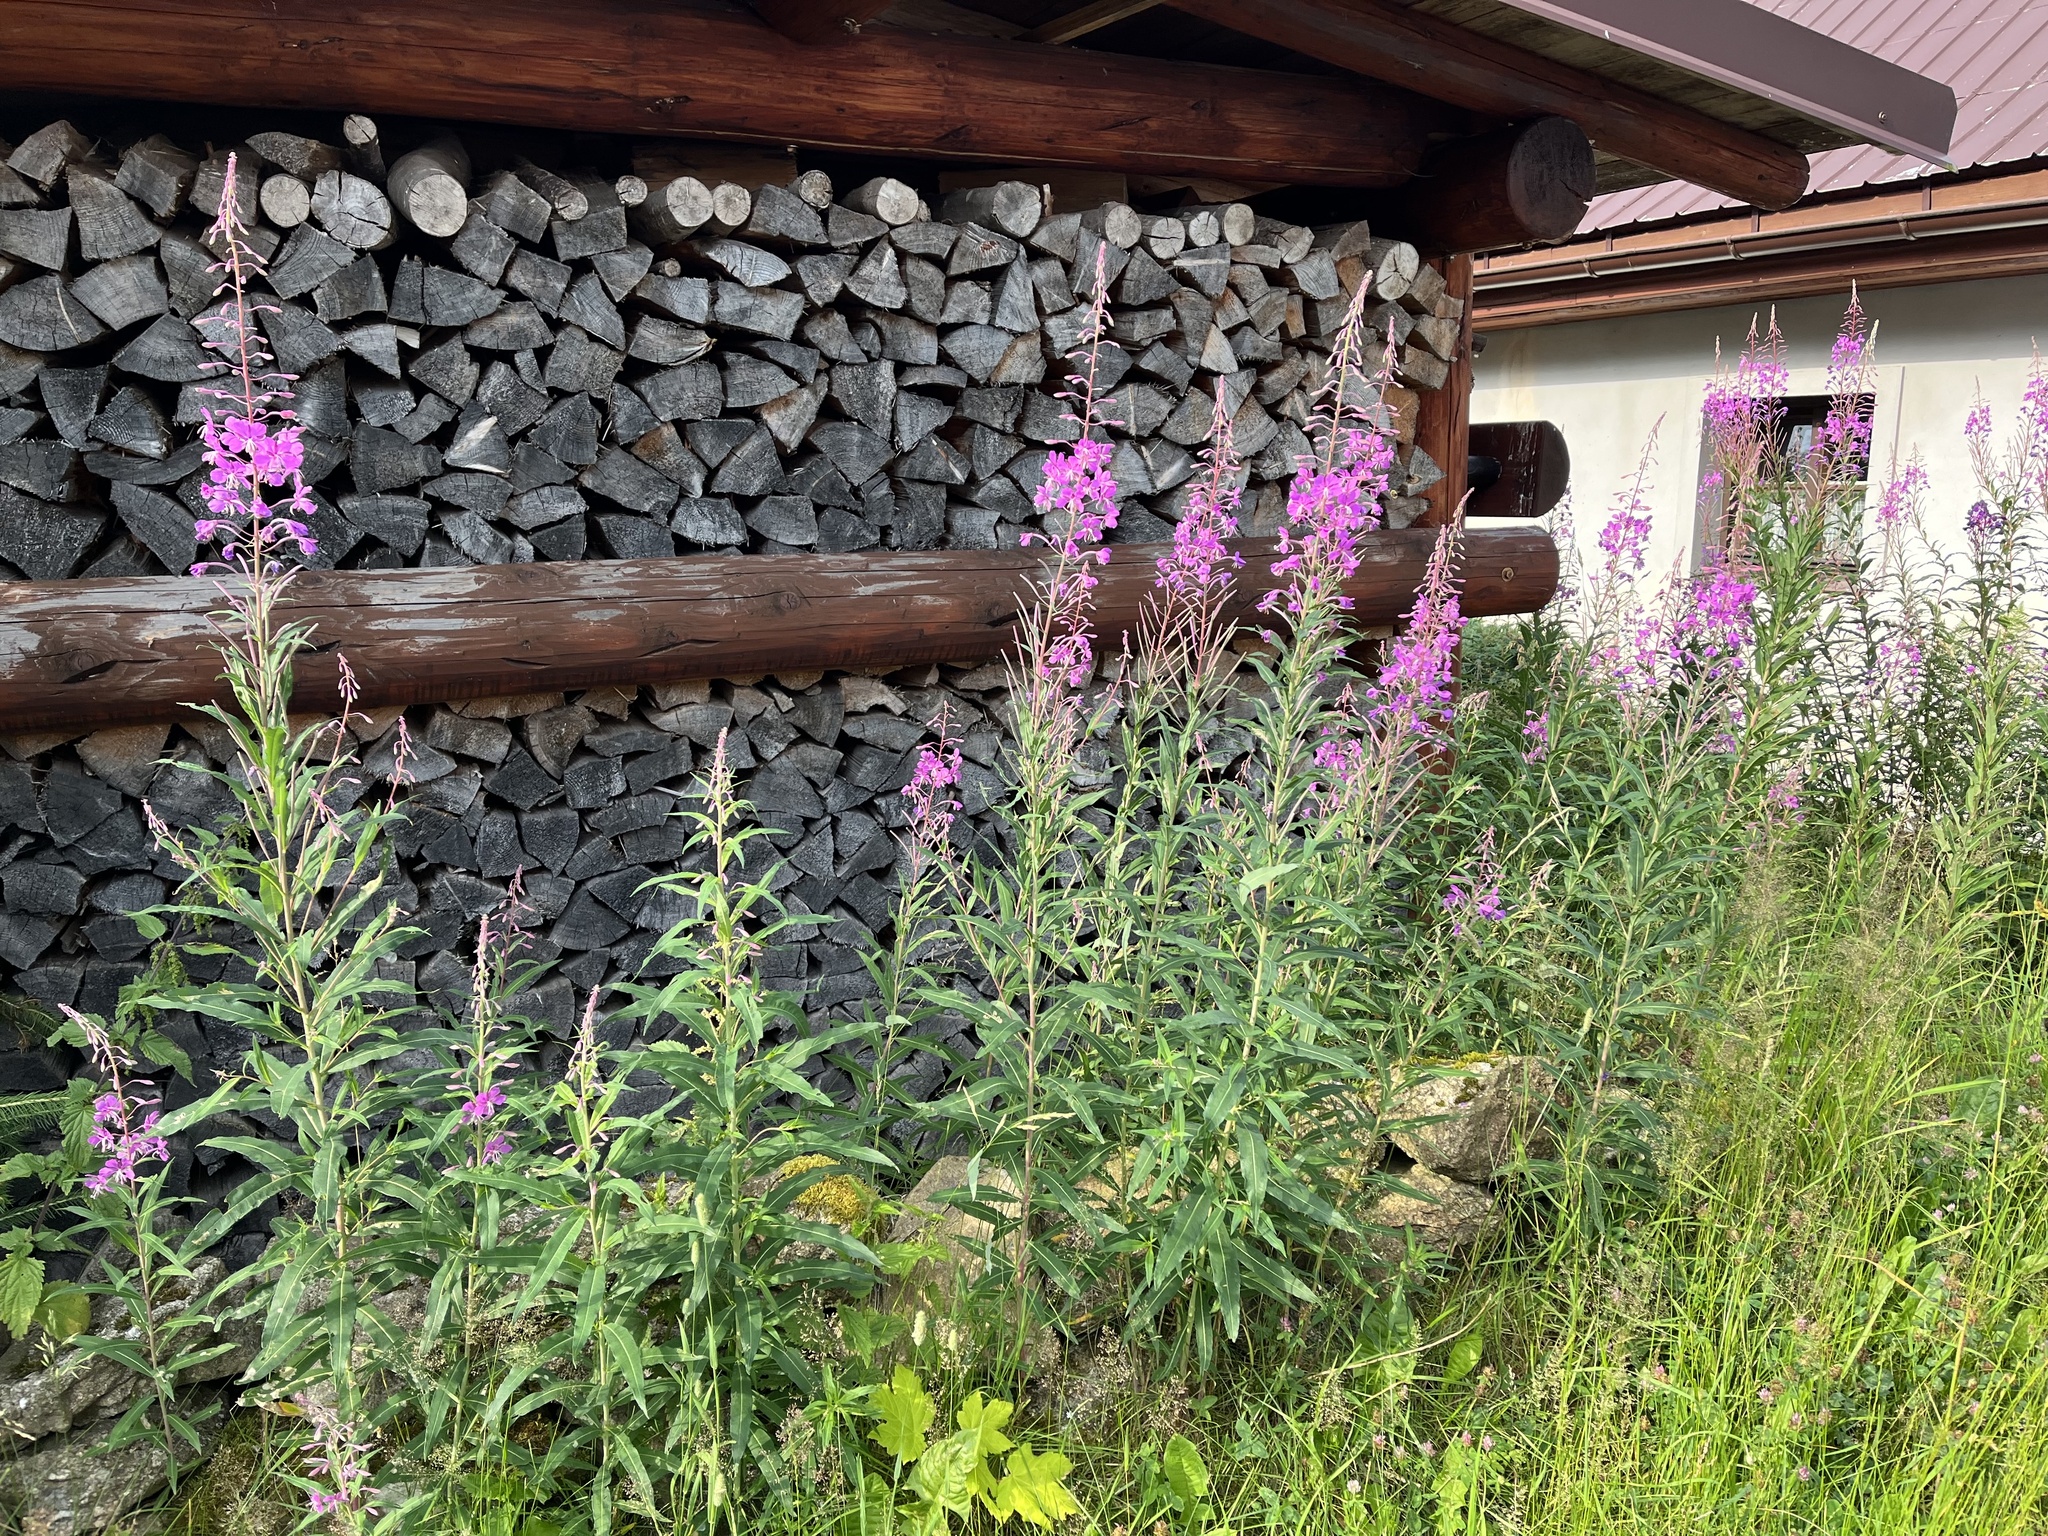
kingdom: Plantae
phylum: Tracheophyta
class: Magnoliopsida
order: Myrtales
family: Onagraceae
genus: Chamaenerion
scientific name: Chamaenerion angustifolium
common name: Fireweed
